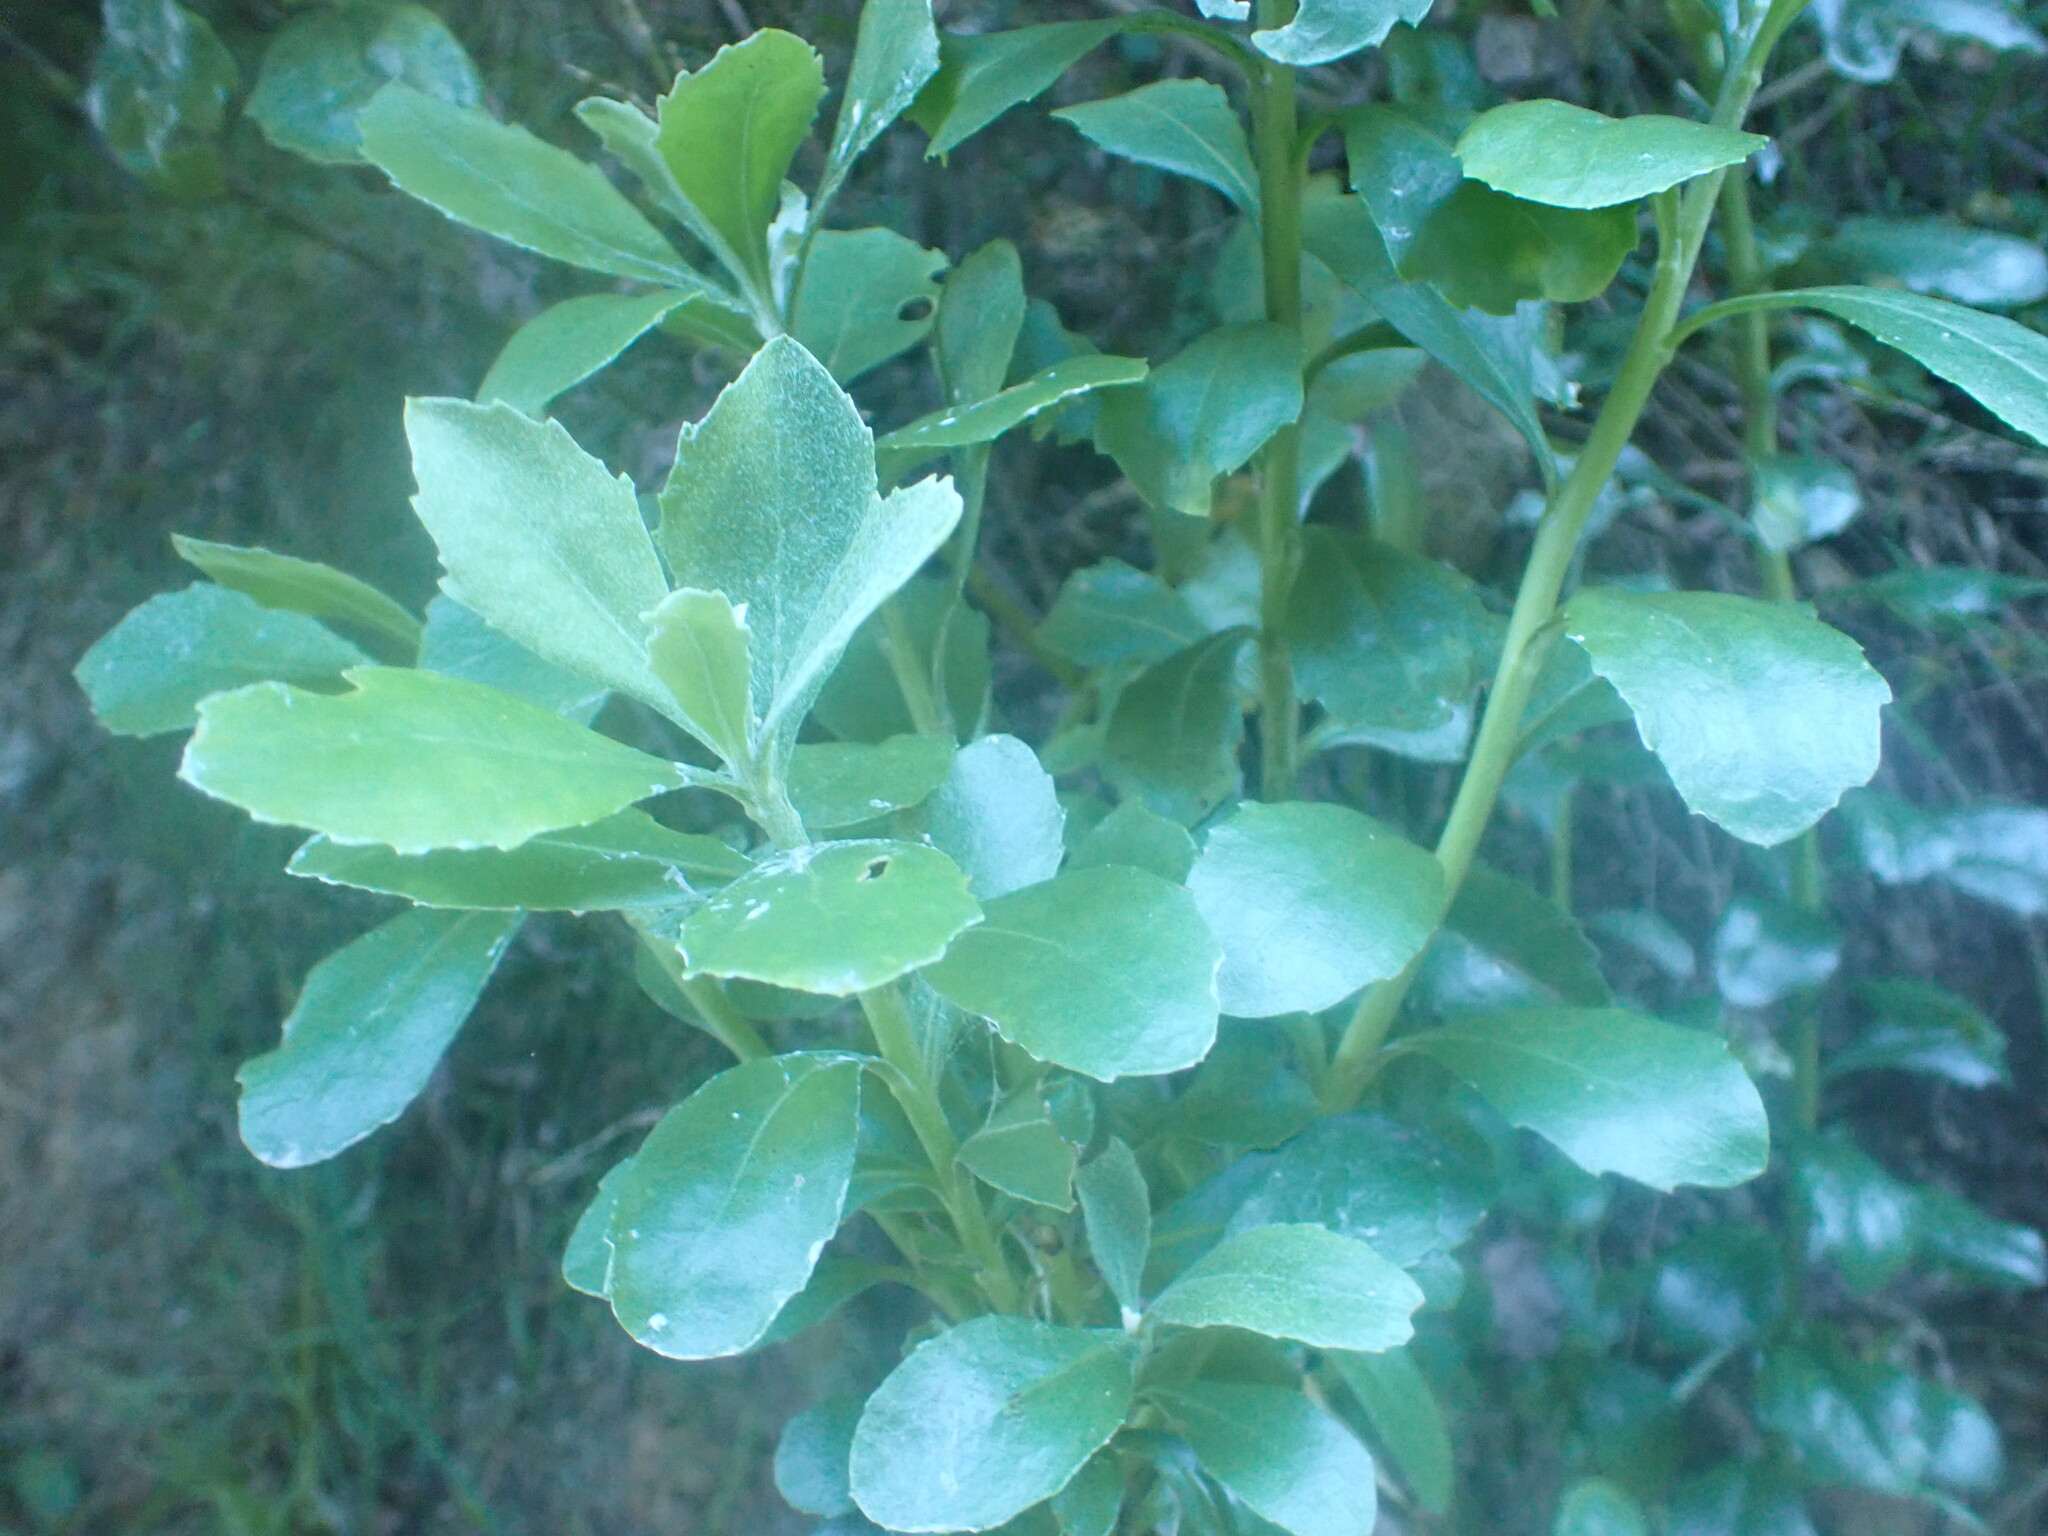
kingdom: Plantae
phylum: Tracheophyta
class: Magnoliopsida
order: Asterales
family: Asteraceae
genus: Osteospermum
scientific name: Osteospermum moniliferum
